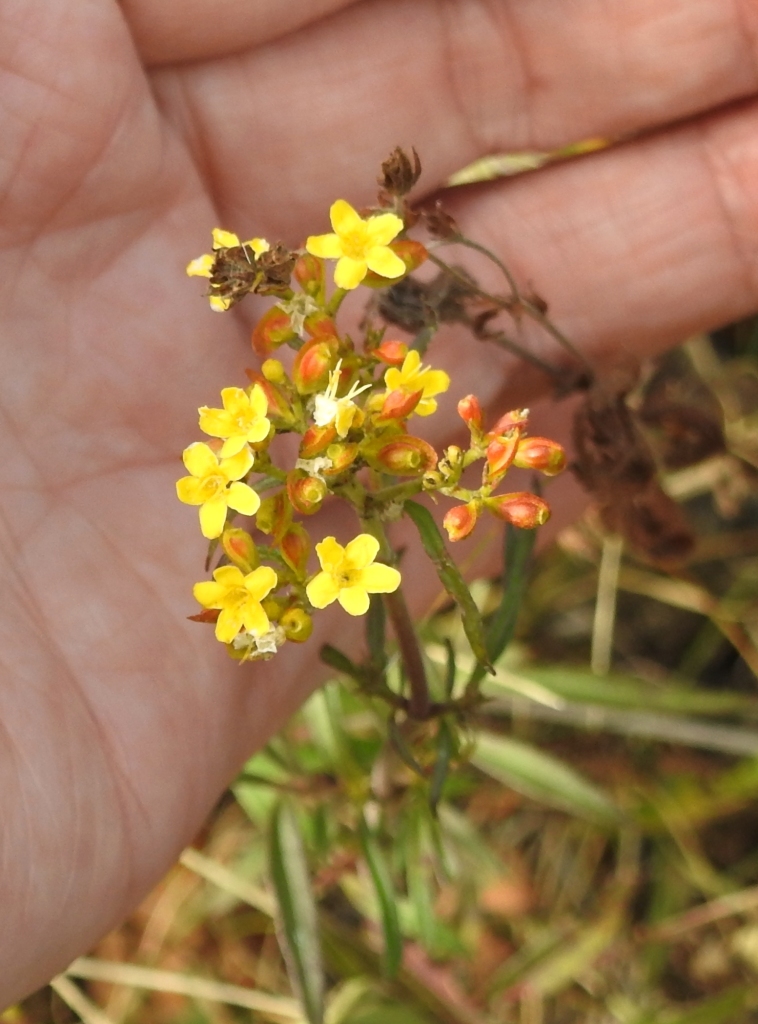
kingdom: Plantae
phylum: Tracheophyta
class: Magnoliopsida
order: Dipsacales
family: Caprifoliaceae
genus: Patrinia
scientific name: Patrinia rupestris
